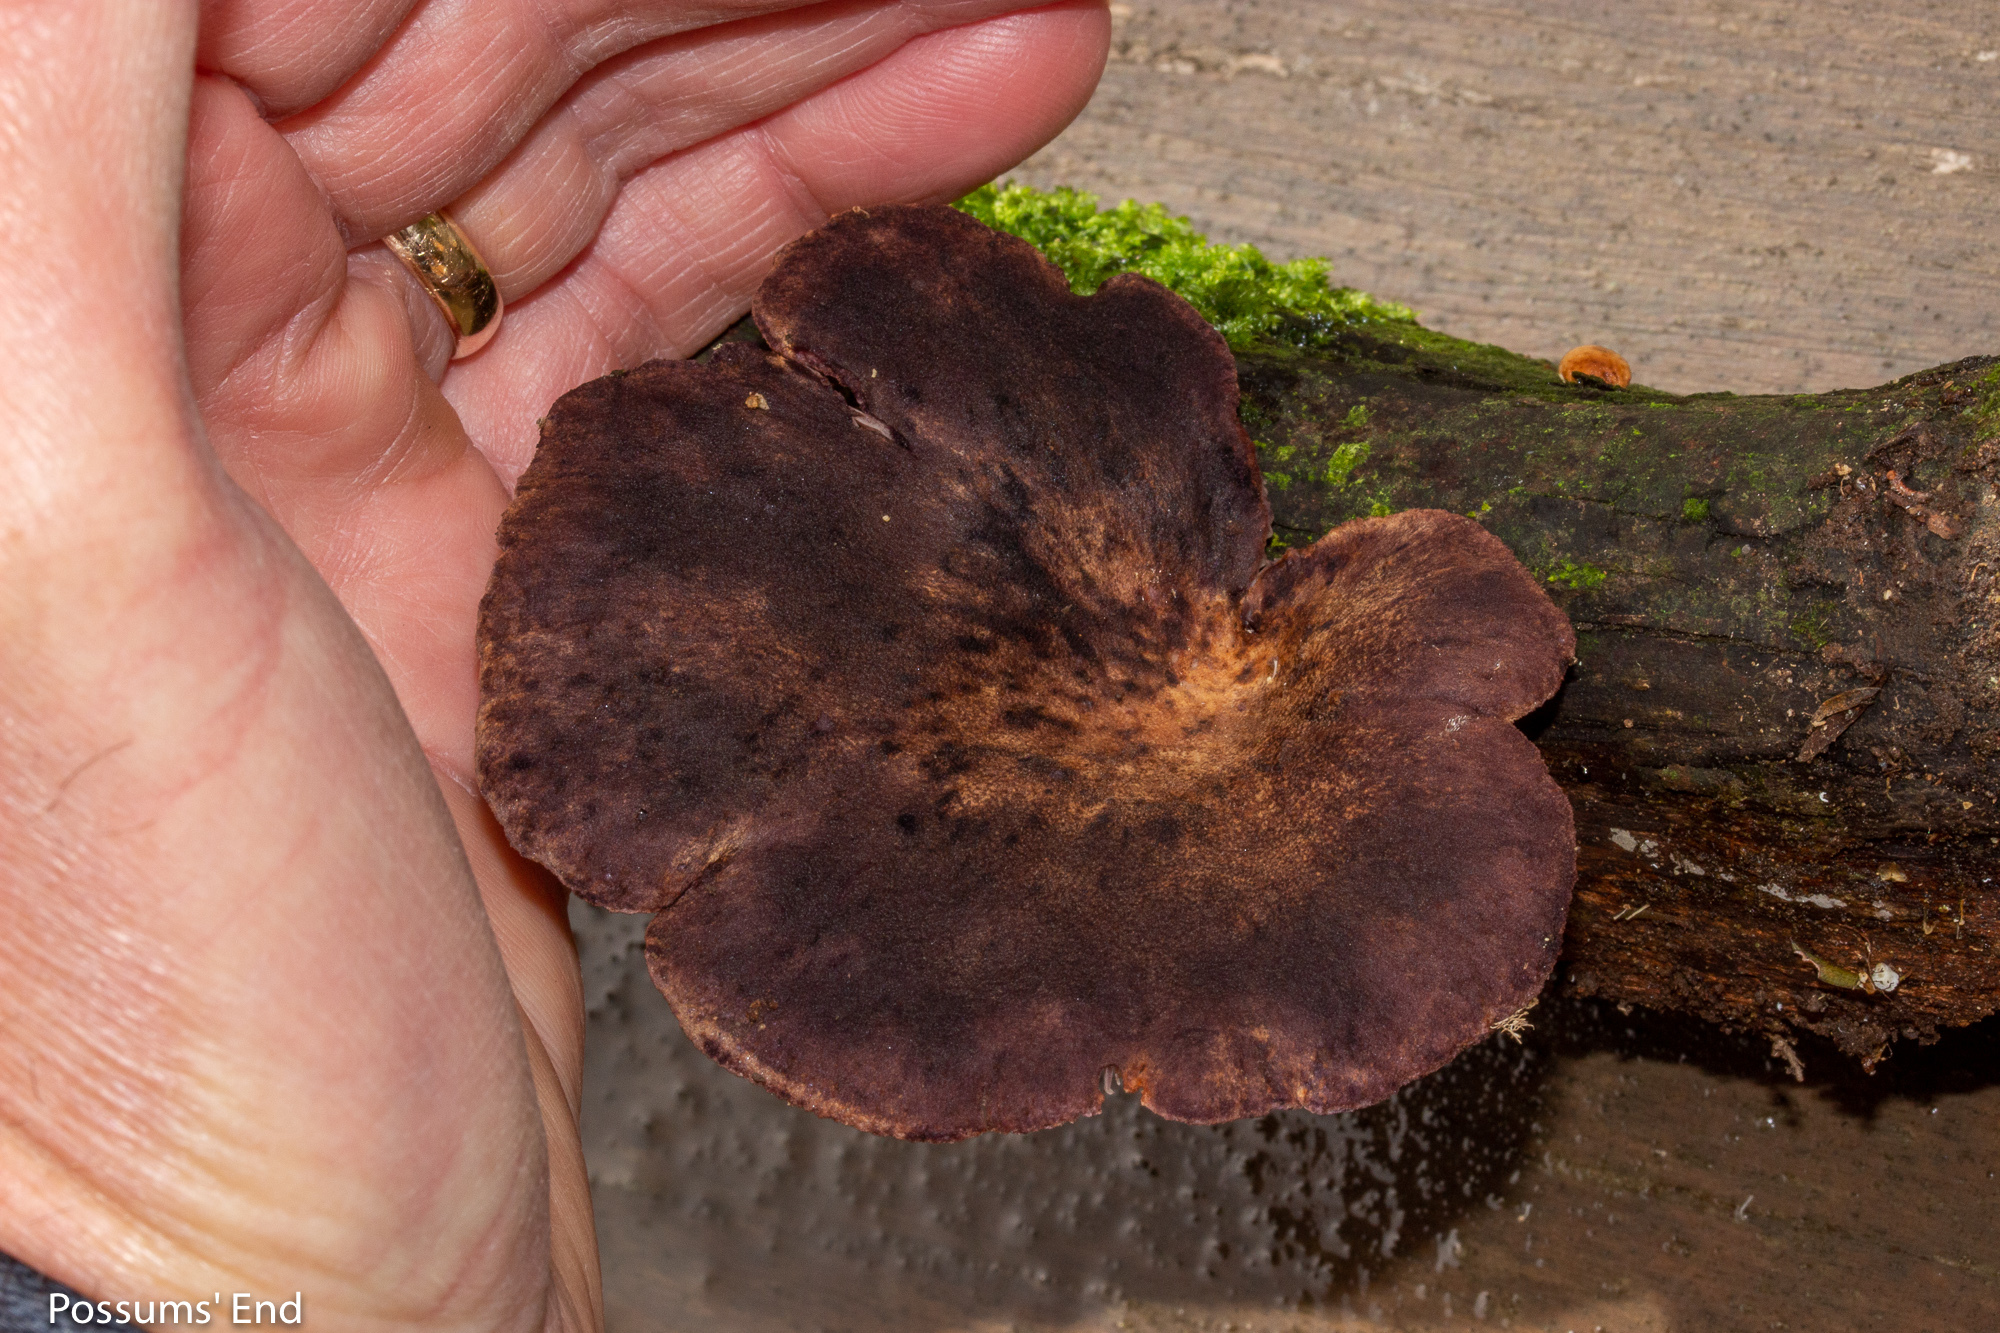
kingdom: Fungi
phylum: Basidiomycota
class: Agaricomycetes
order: Polyporales
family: Panaceae
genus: Panus
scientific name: Panus purpuratus
